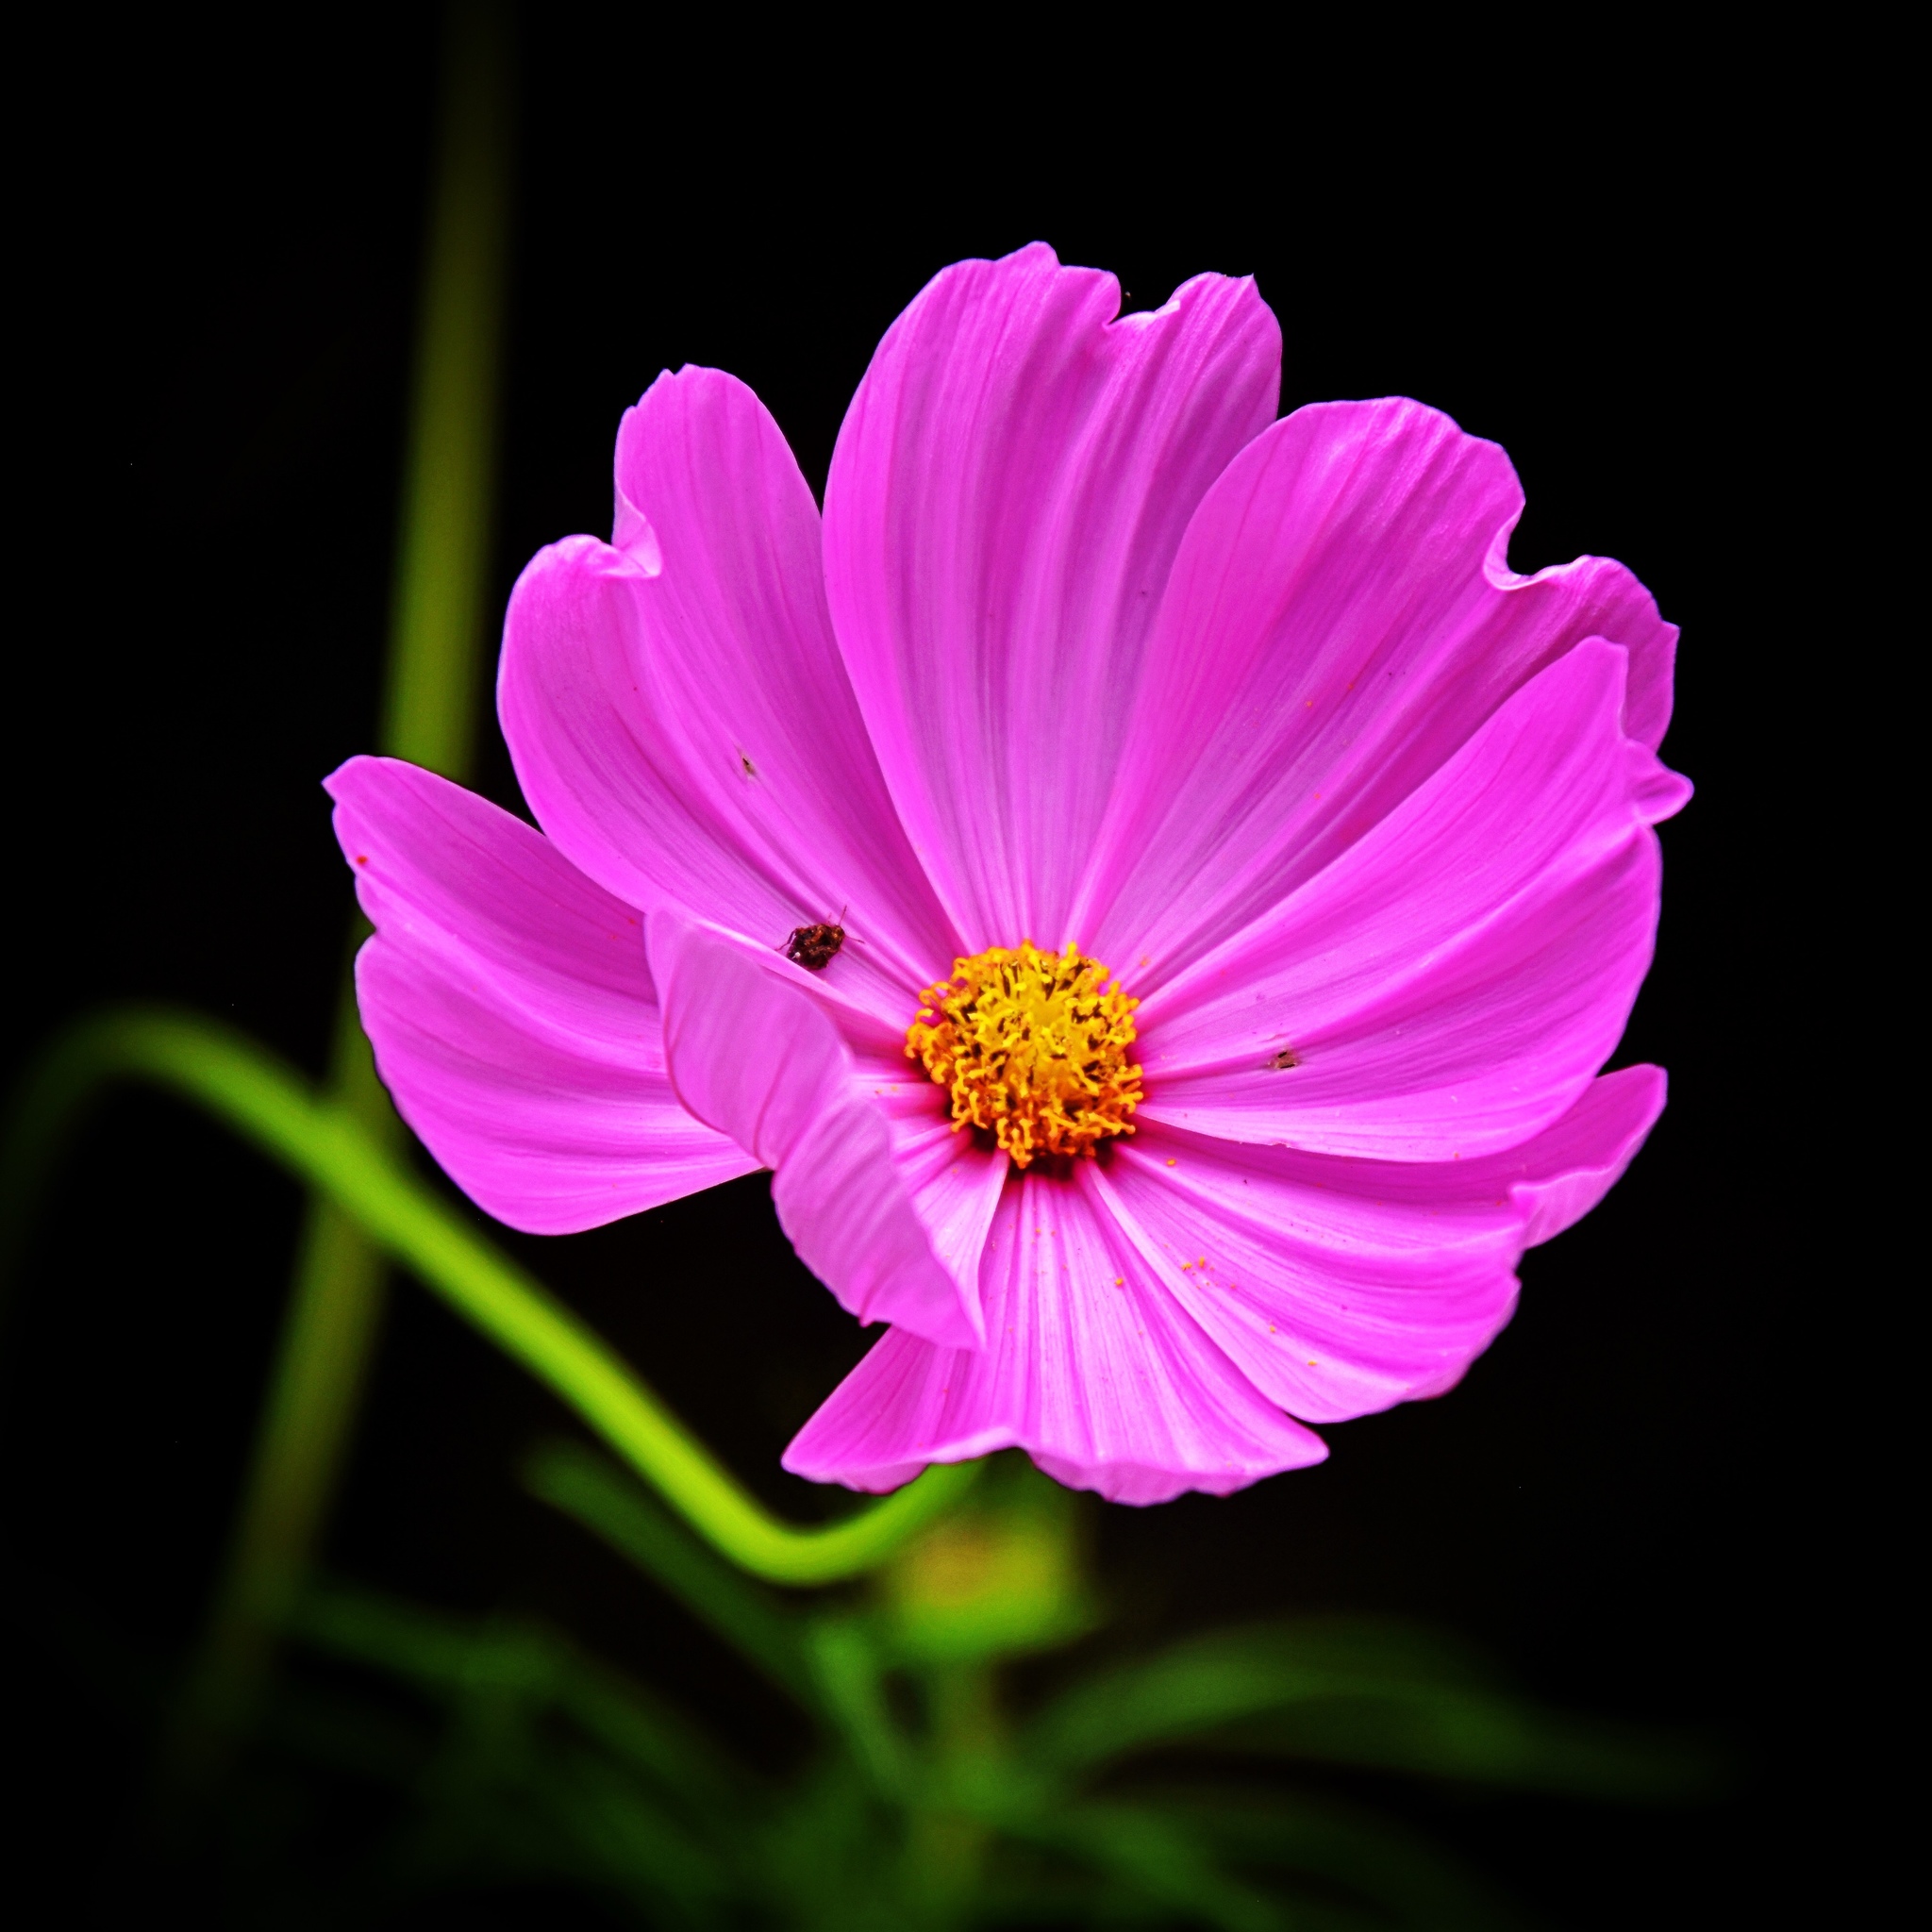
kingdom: Plantae
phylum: Tracheophyta
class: Magnoliopsida
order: Asterales
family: Asteraceae
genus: Cosmos
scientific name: Cosmos bipinnatus
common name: Garden cosmos
